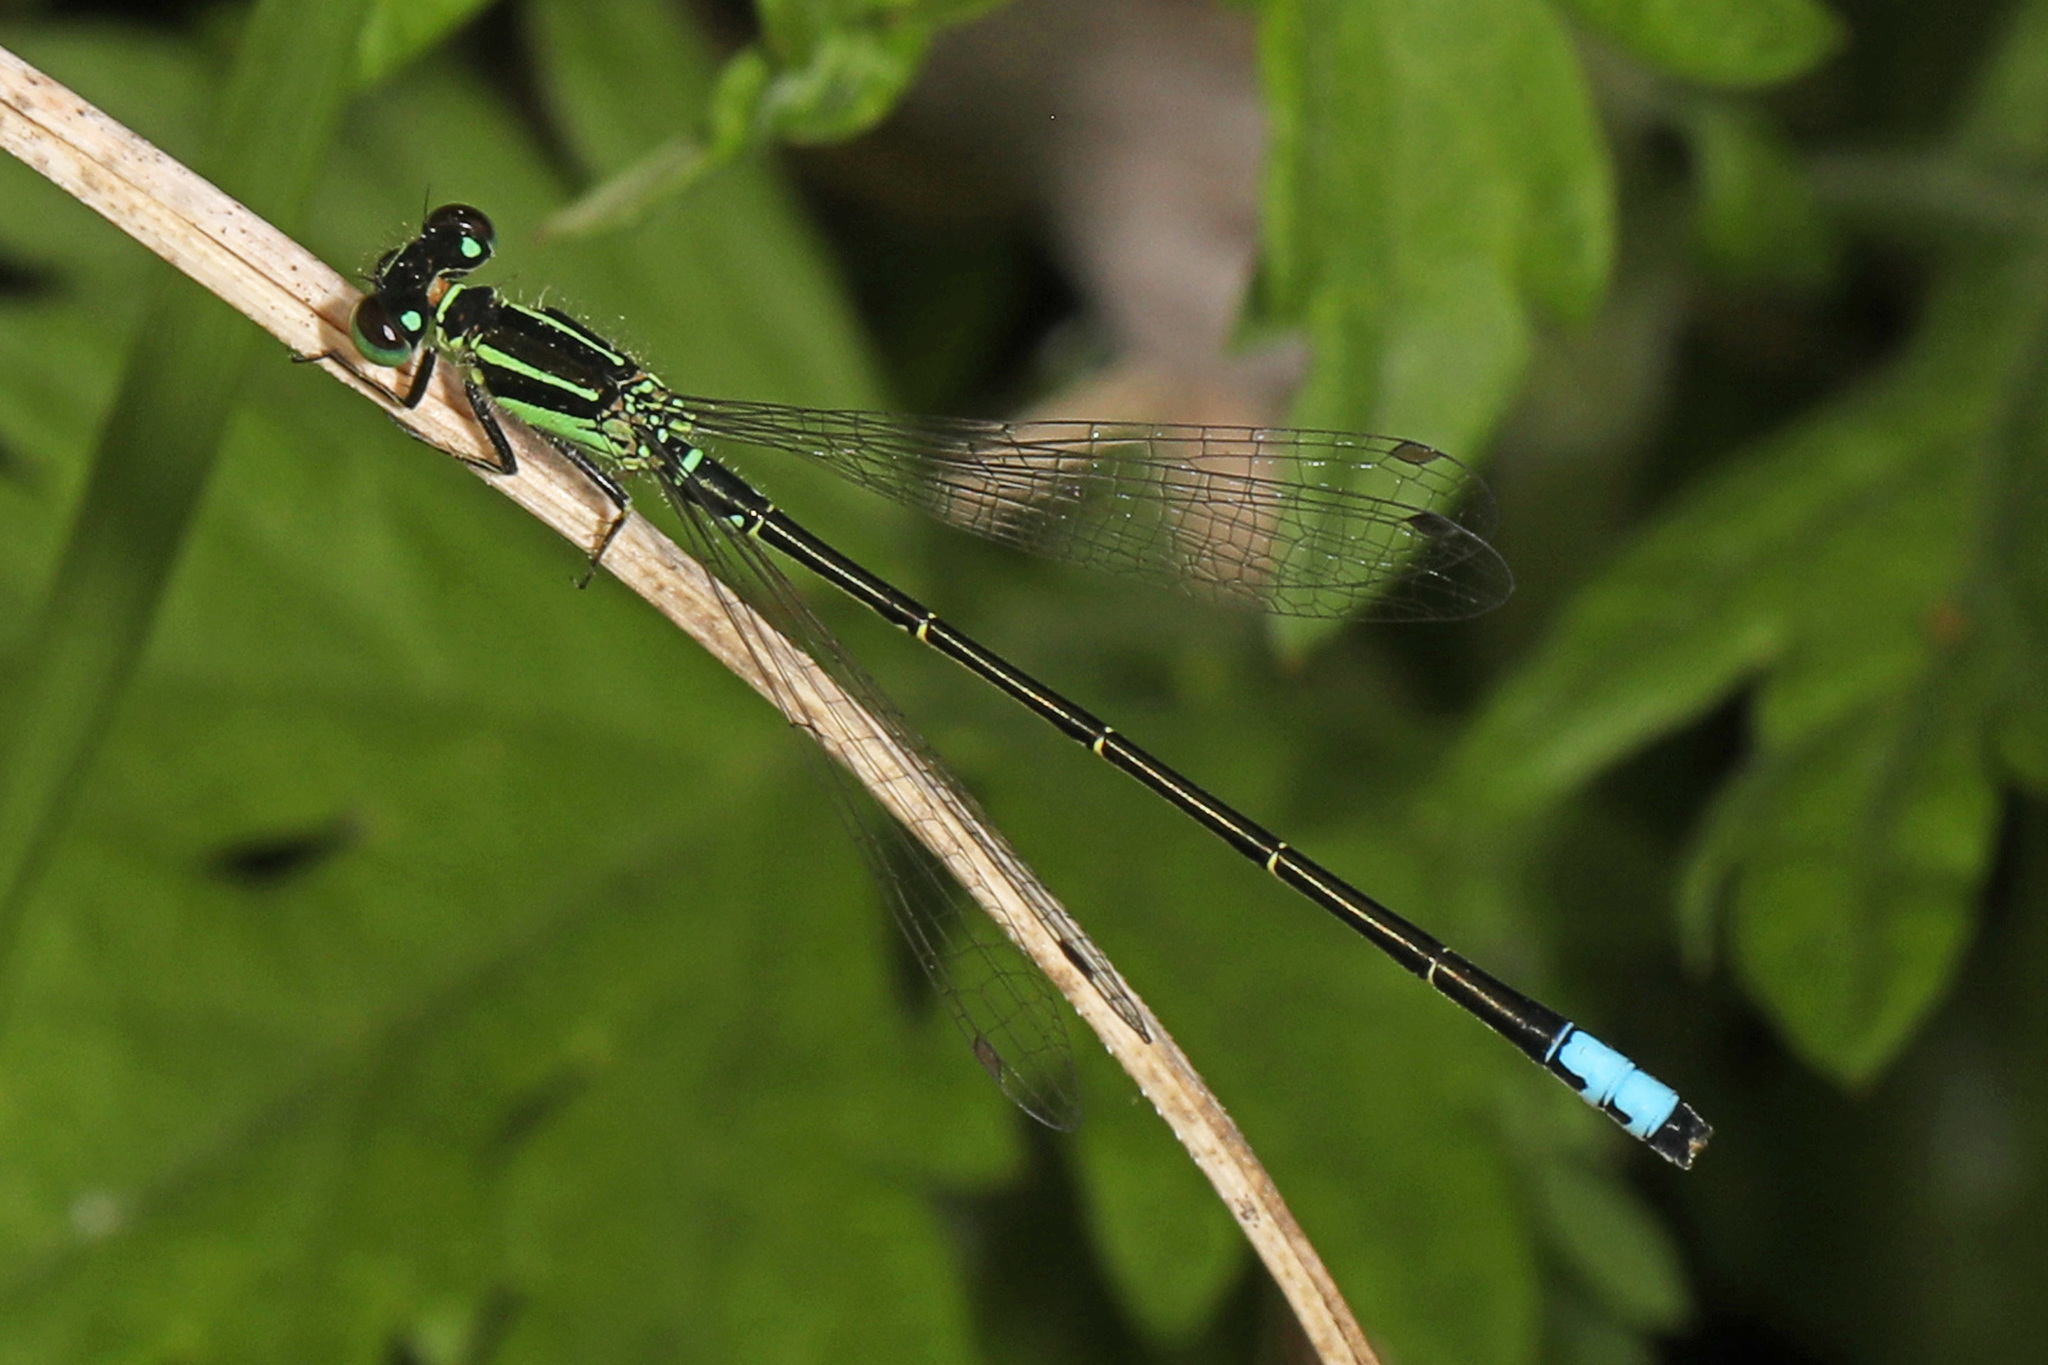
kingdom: Animalia
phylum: Arthropoda
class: Insecta
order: Odonata
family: Coenagrionidae
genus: Ischnura
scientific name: Ischnura verticalis
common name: Eastern forktail
